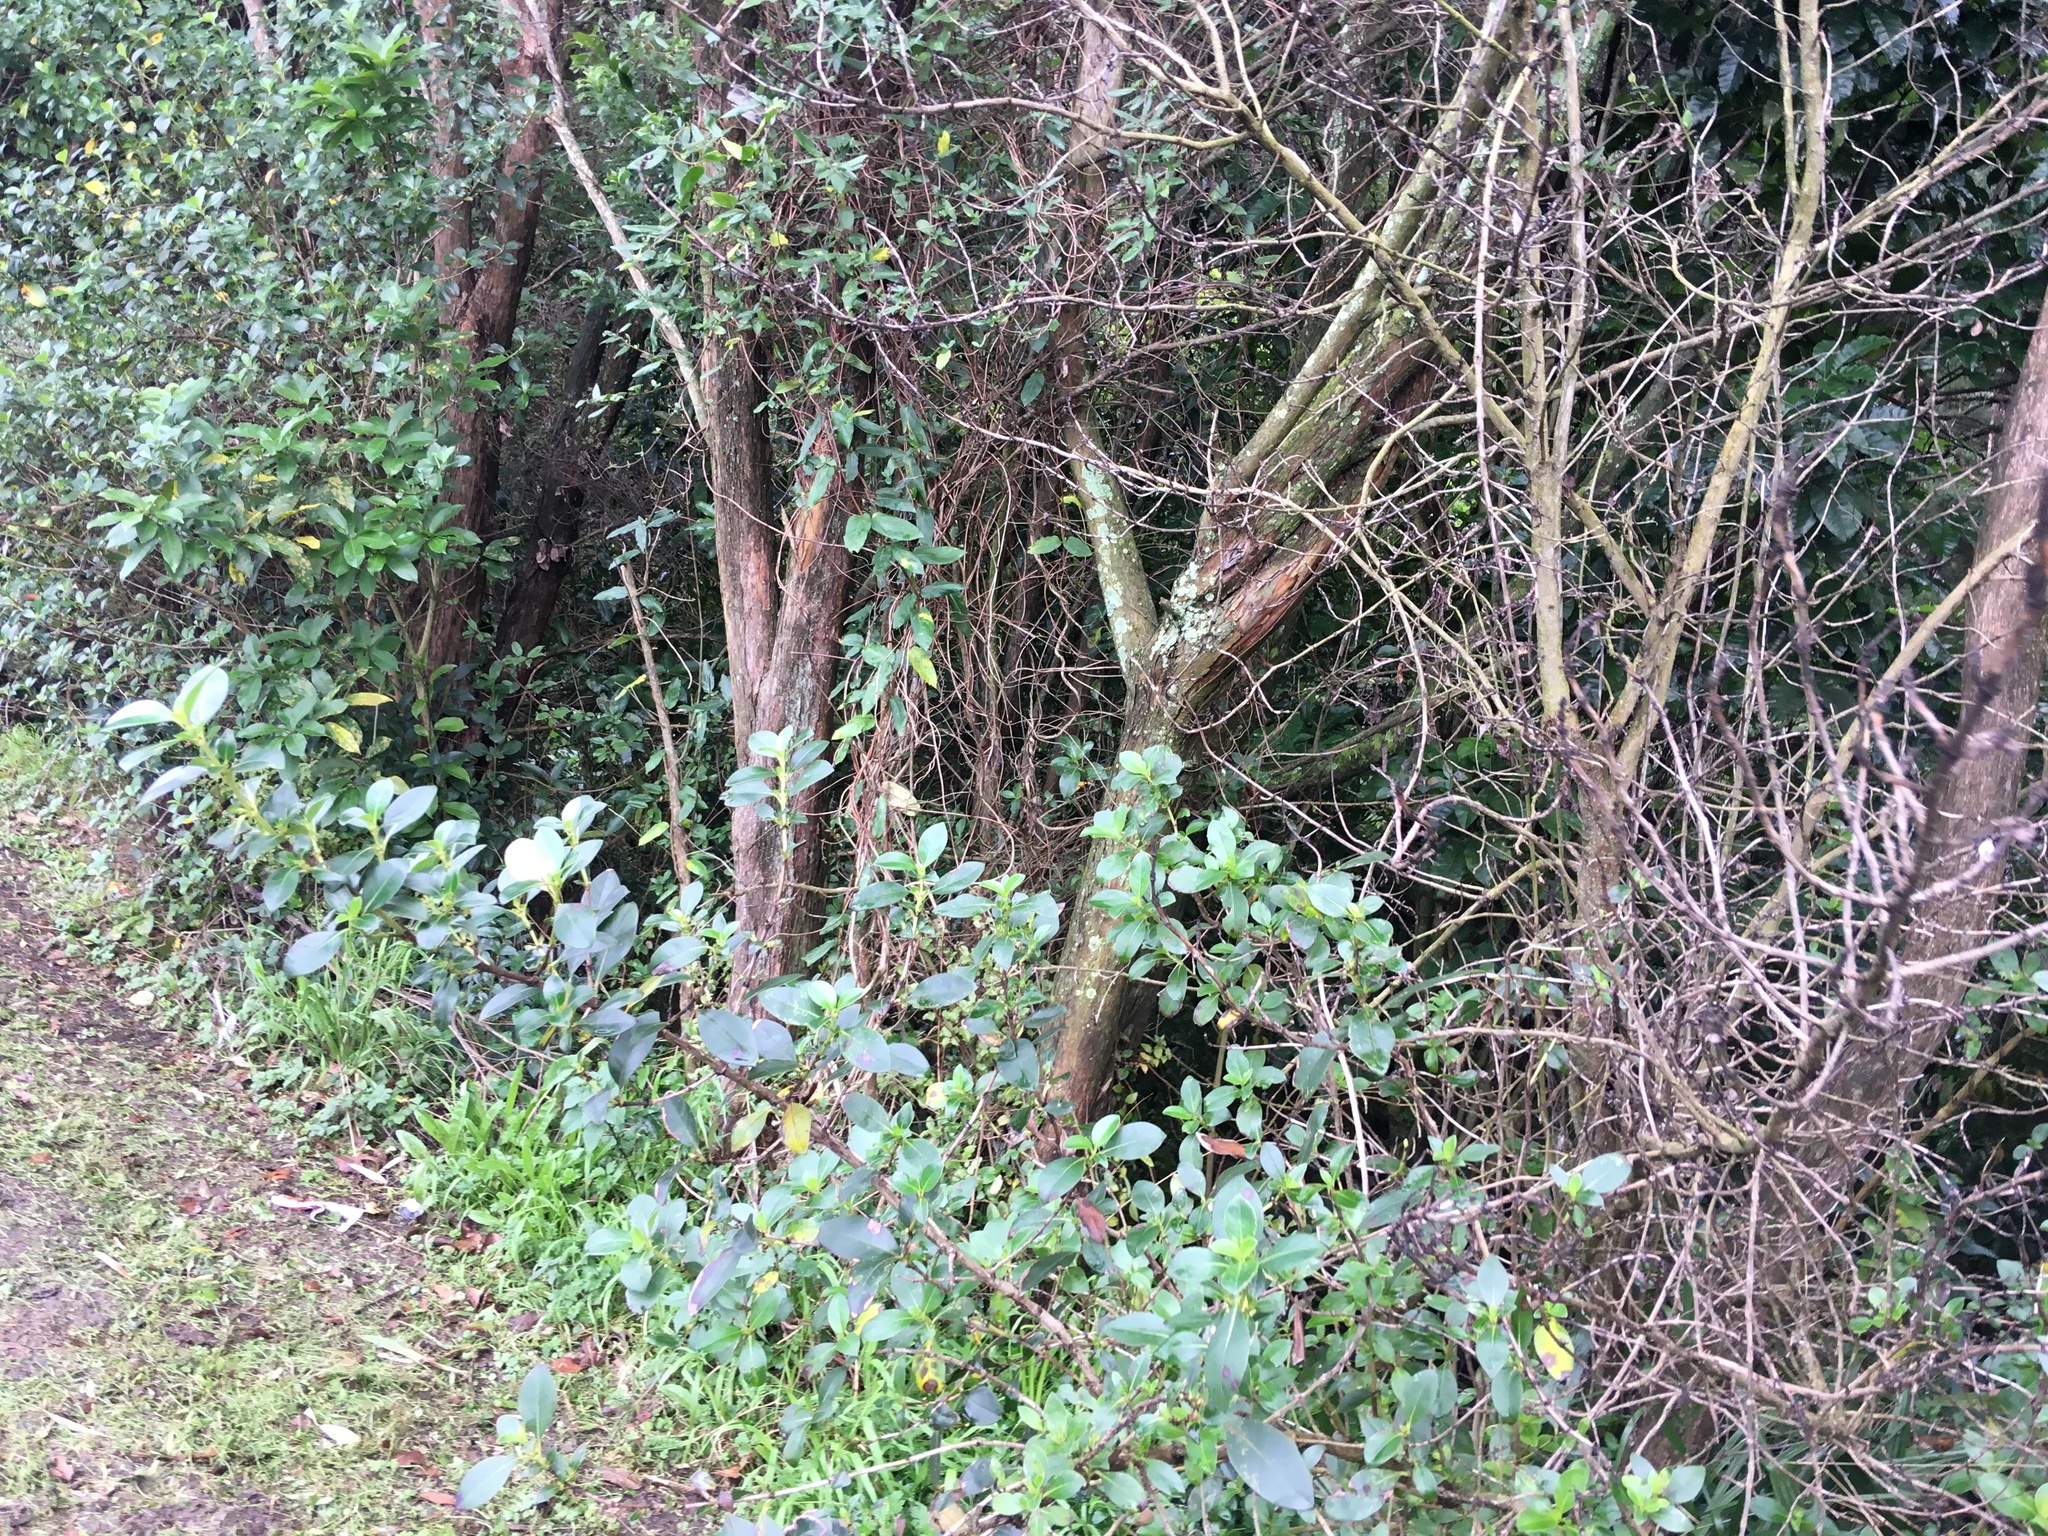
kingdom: Plantae
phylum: Tracheophyta
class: Magnoliopsida
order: Gentianales
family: Apocynaceae
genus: Araujia
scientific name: Araujia sericifera
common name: White bladderflower
